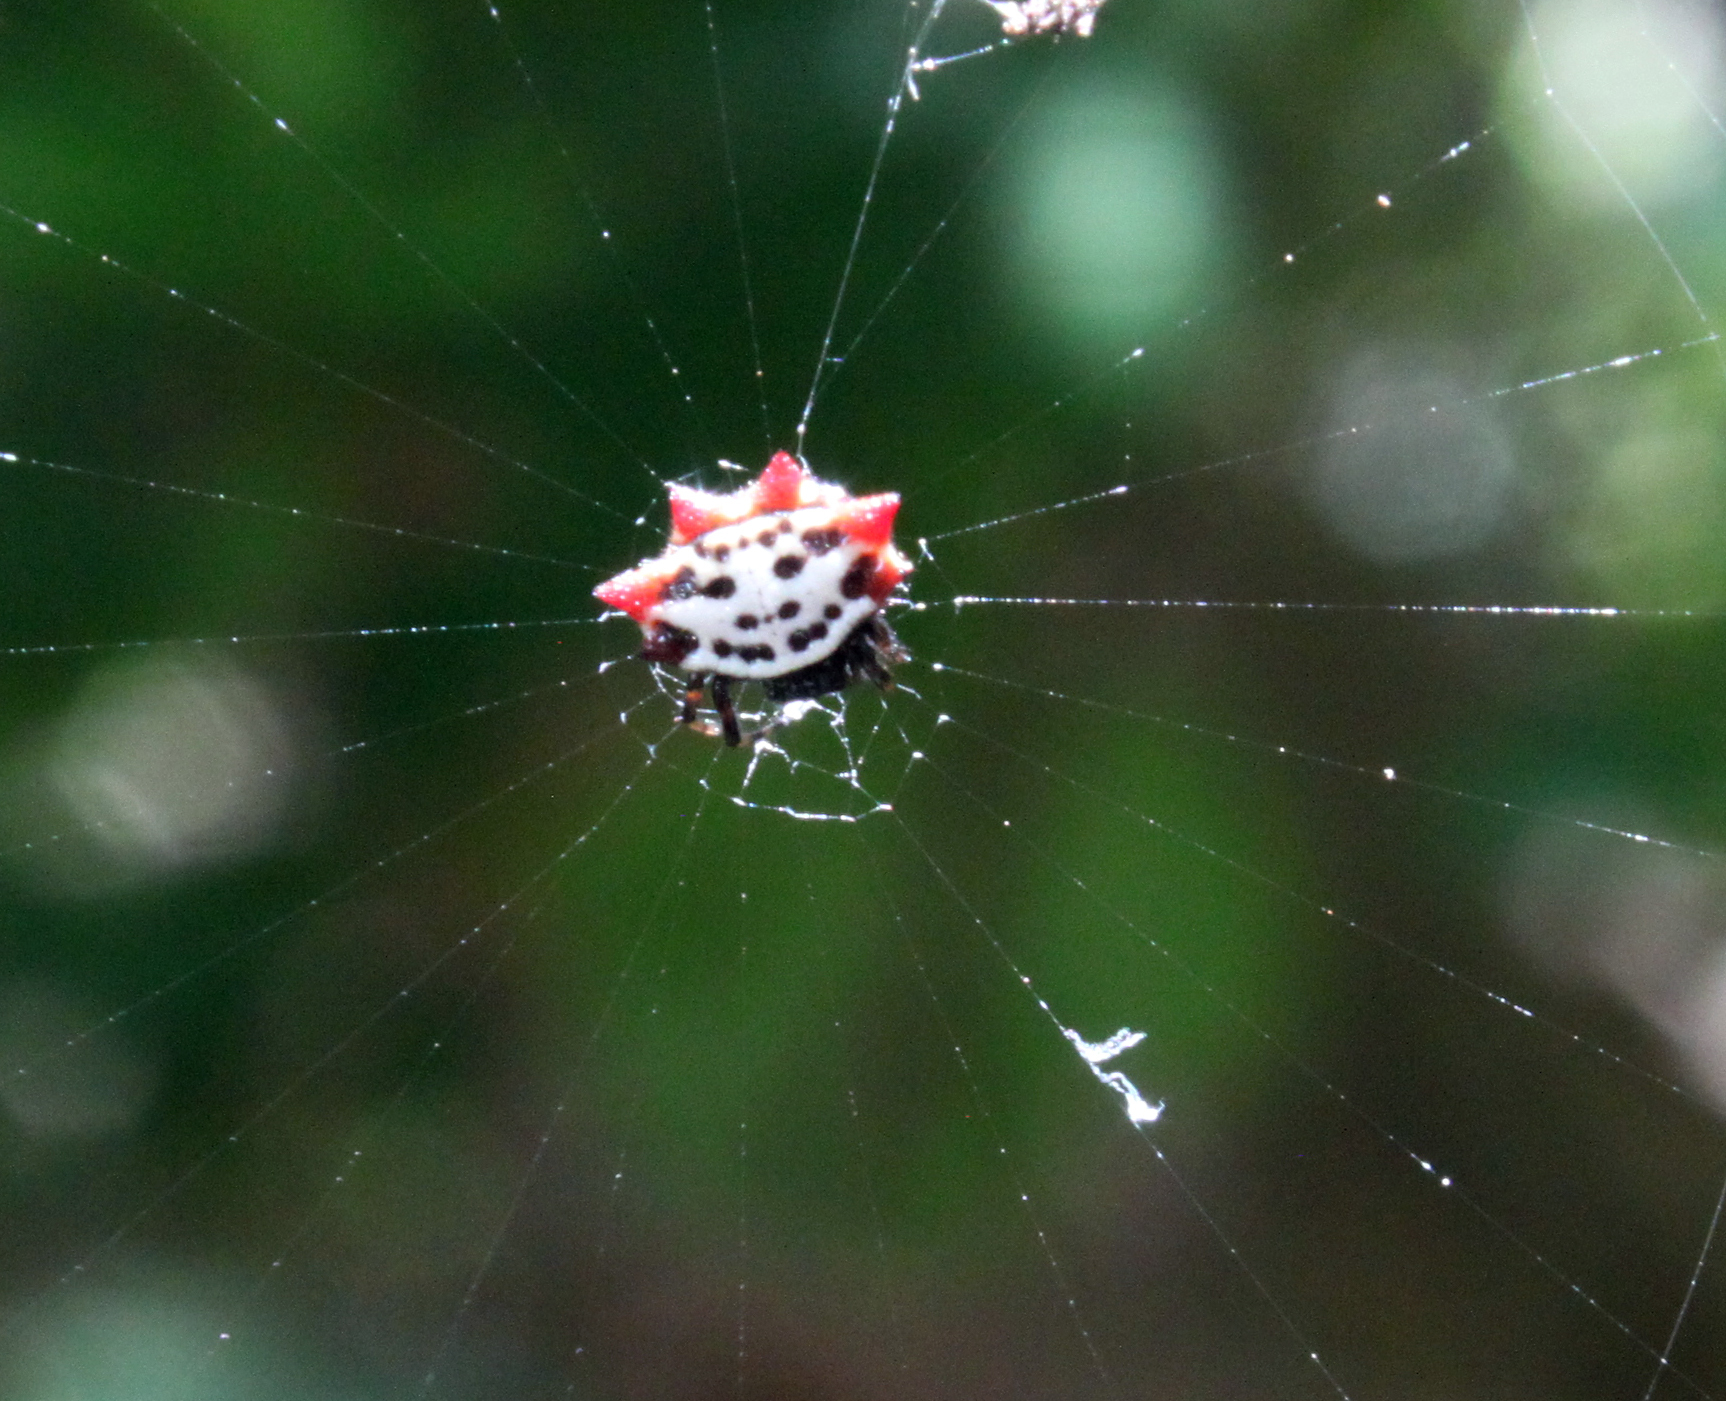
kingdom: Animalia
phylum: Arthropoda
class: Arachnida
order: Araneae
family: Araneidae
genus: Gasteracantha
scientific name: Gasteracantha cancriformis
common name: Orb weavers
